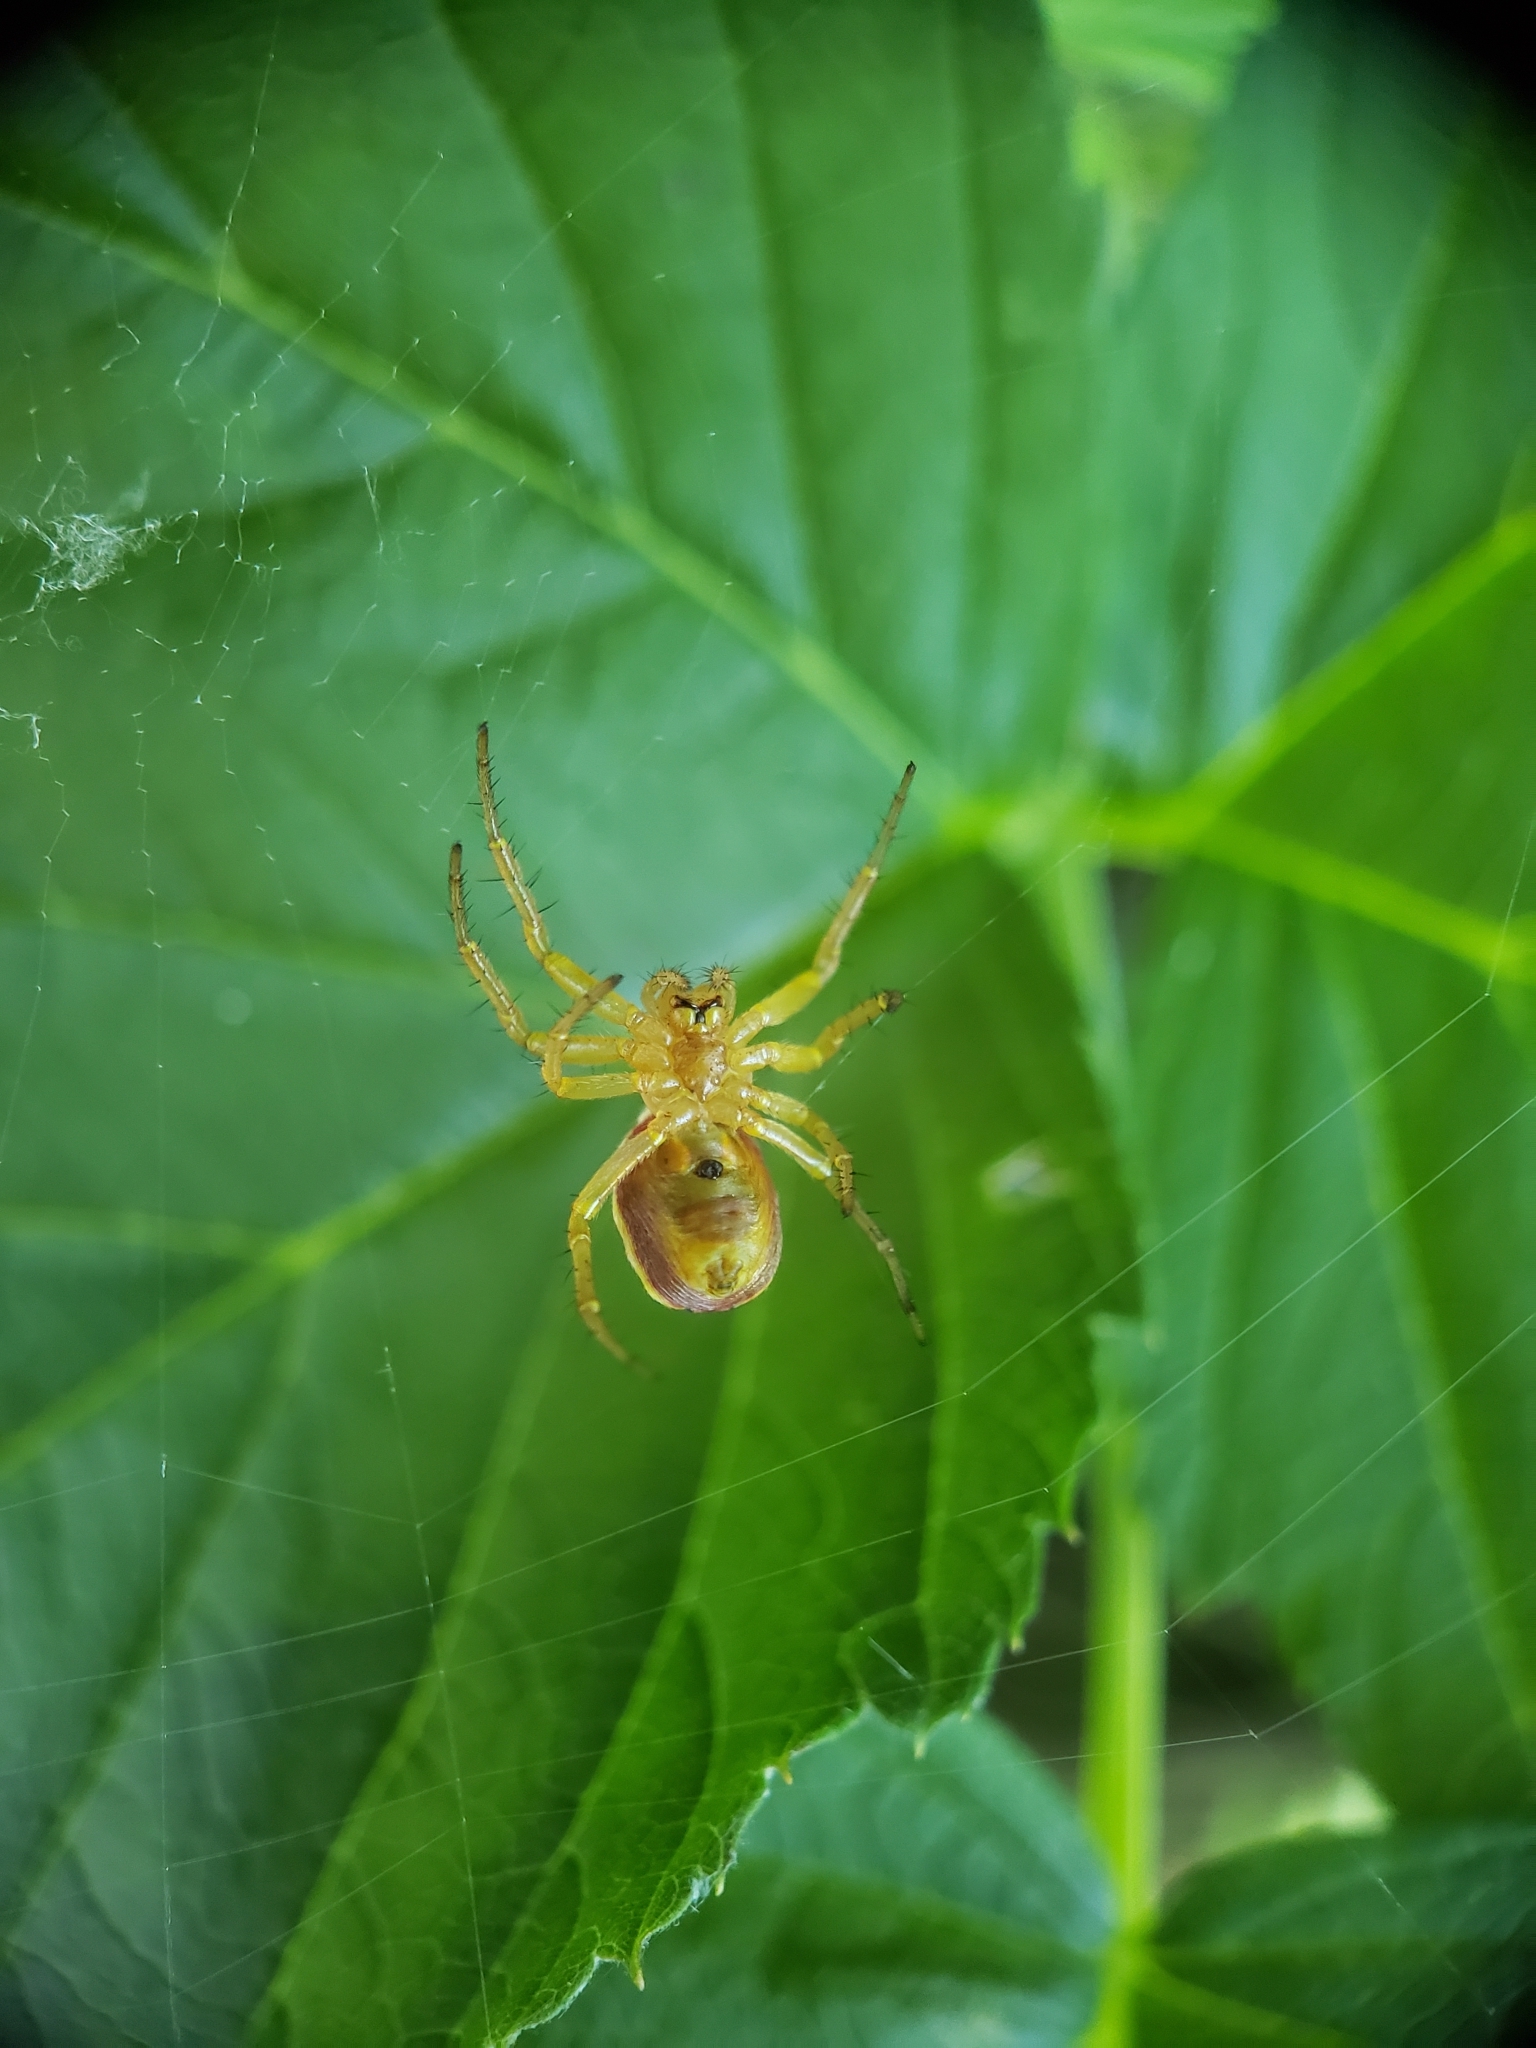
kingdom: Animalia
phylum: Arthropoda
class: Arachnida
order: Araneae
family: Araneidae
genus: Araniella
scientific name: Araniella displicata
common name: Sixspotted orb weaver
